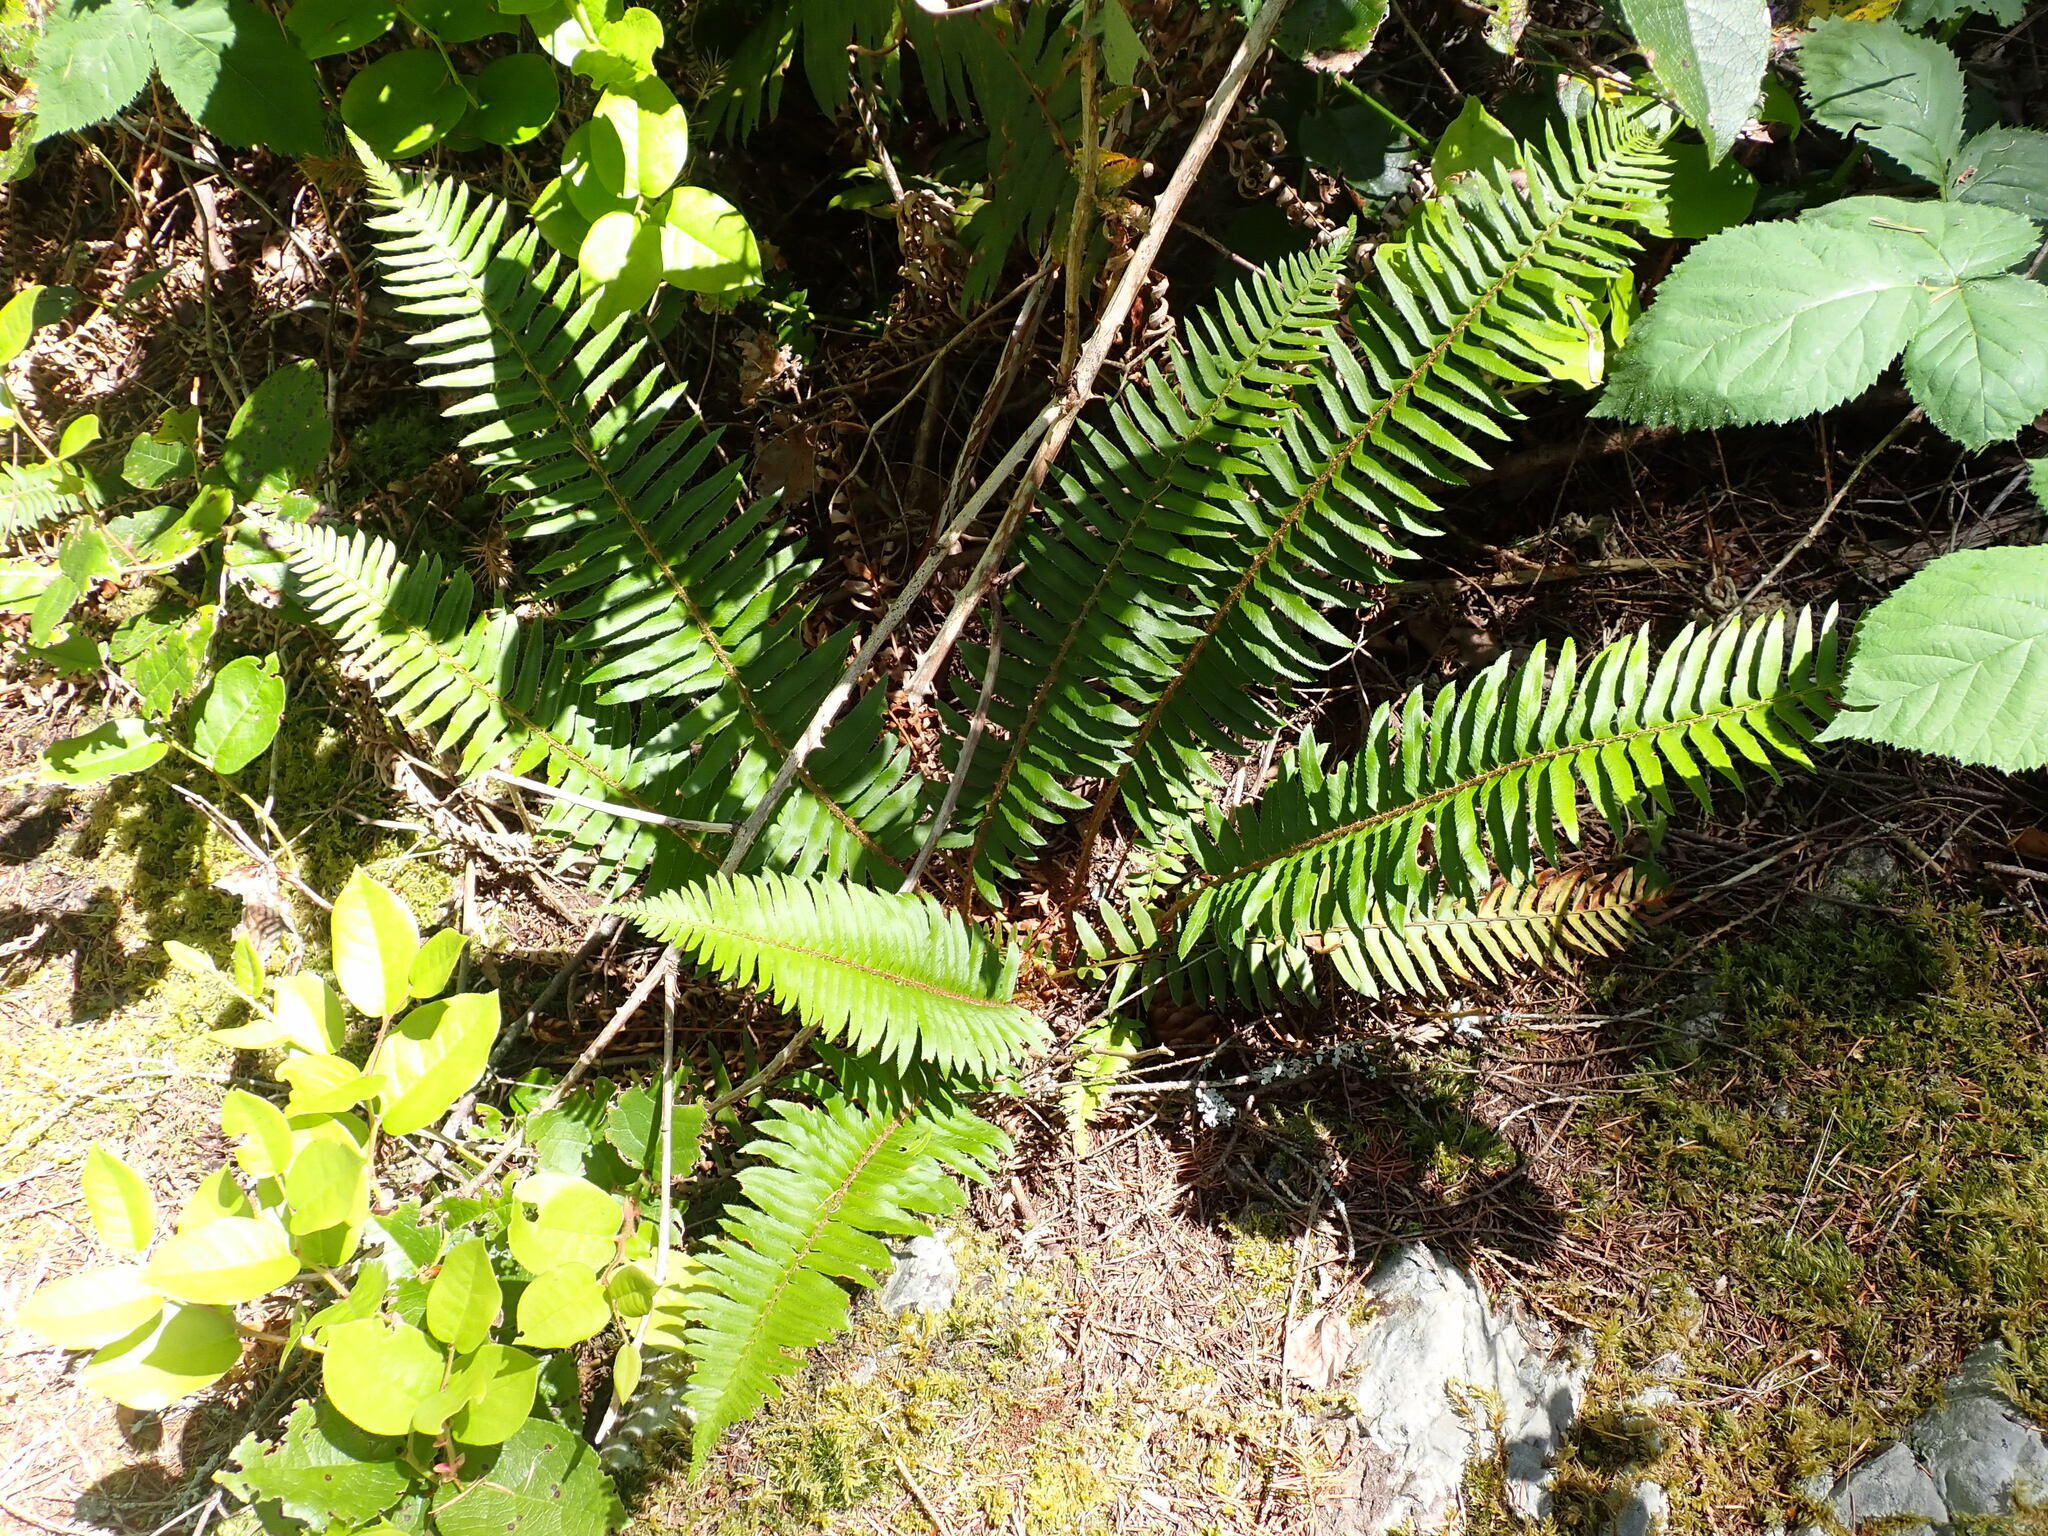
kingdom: Plantae
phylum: Tracheophyta
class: Polypodiopsida
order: Polypodiales
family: Dryopteridaceae
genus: Polystichum
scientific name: Polystichum munitum
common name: Western sword-fern
